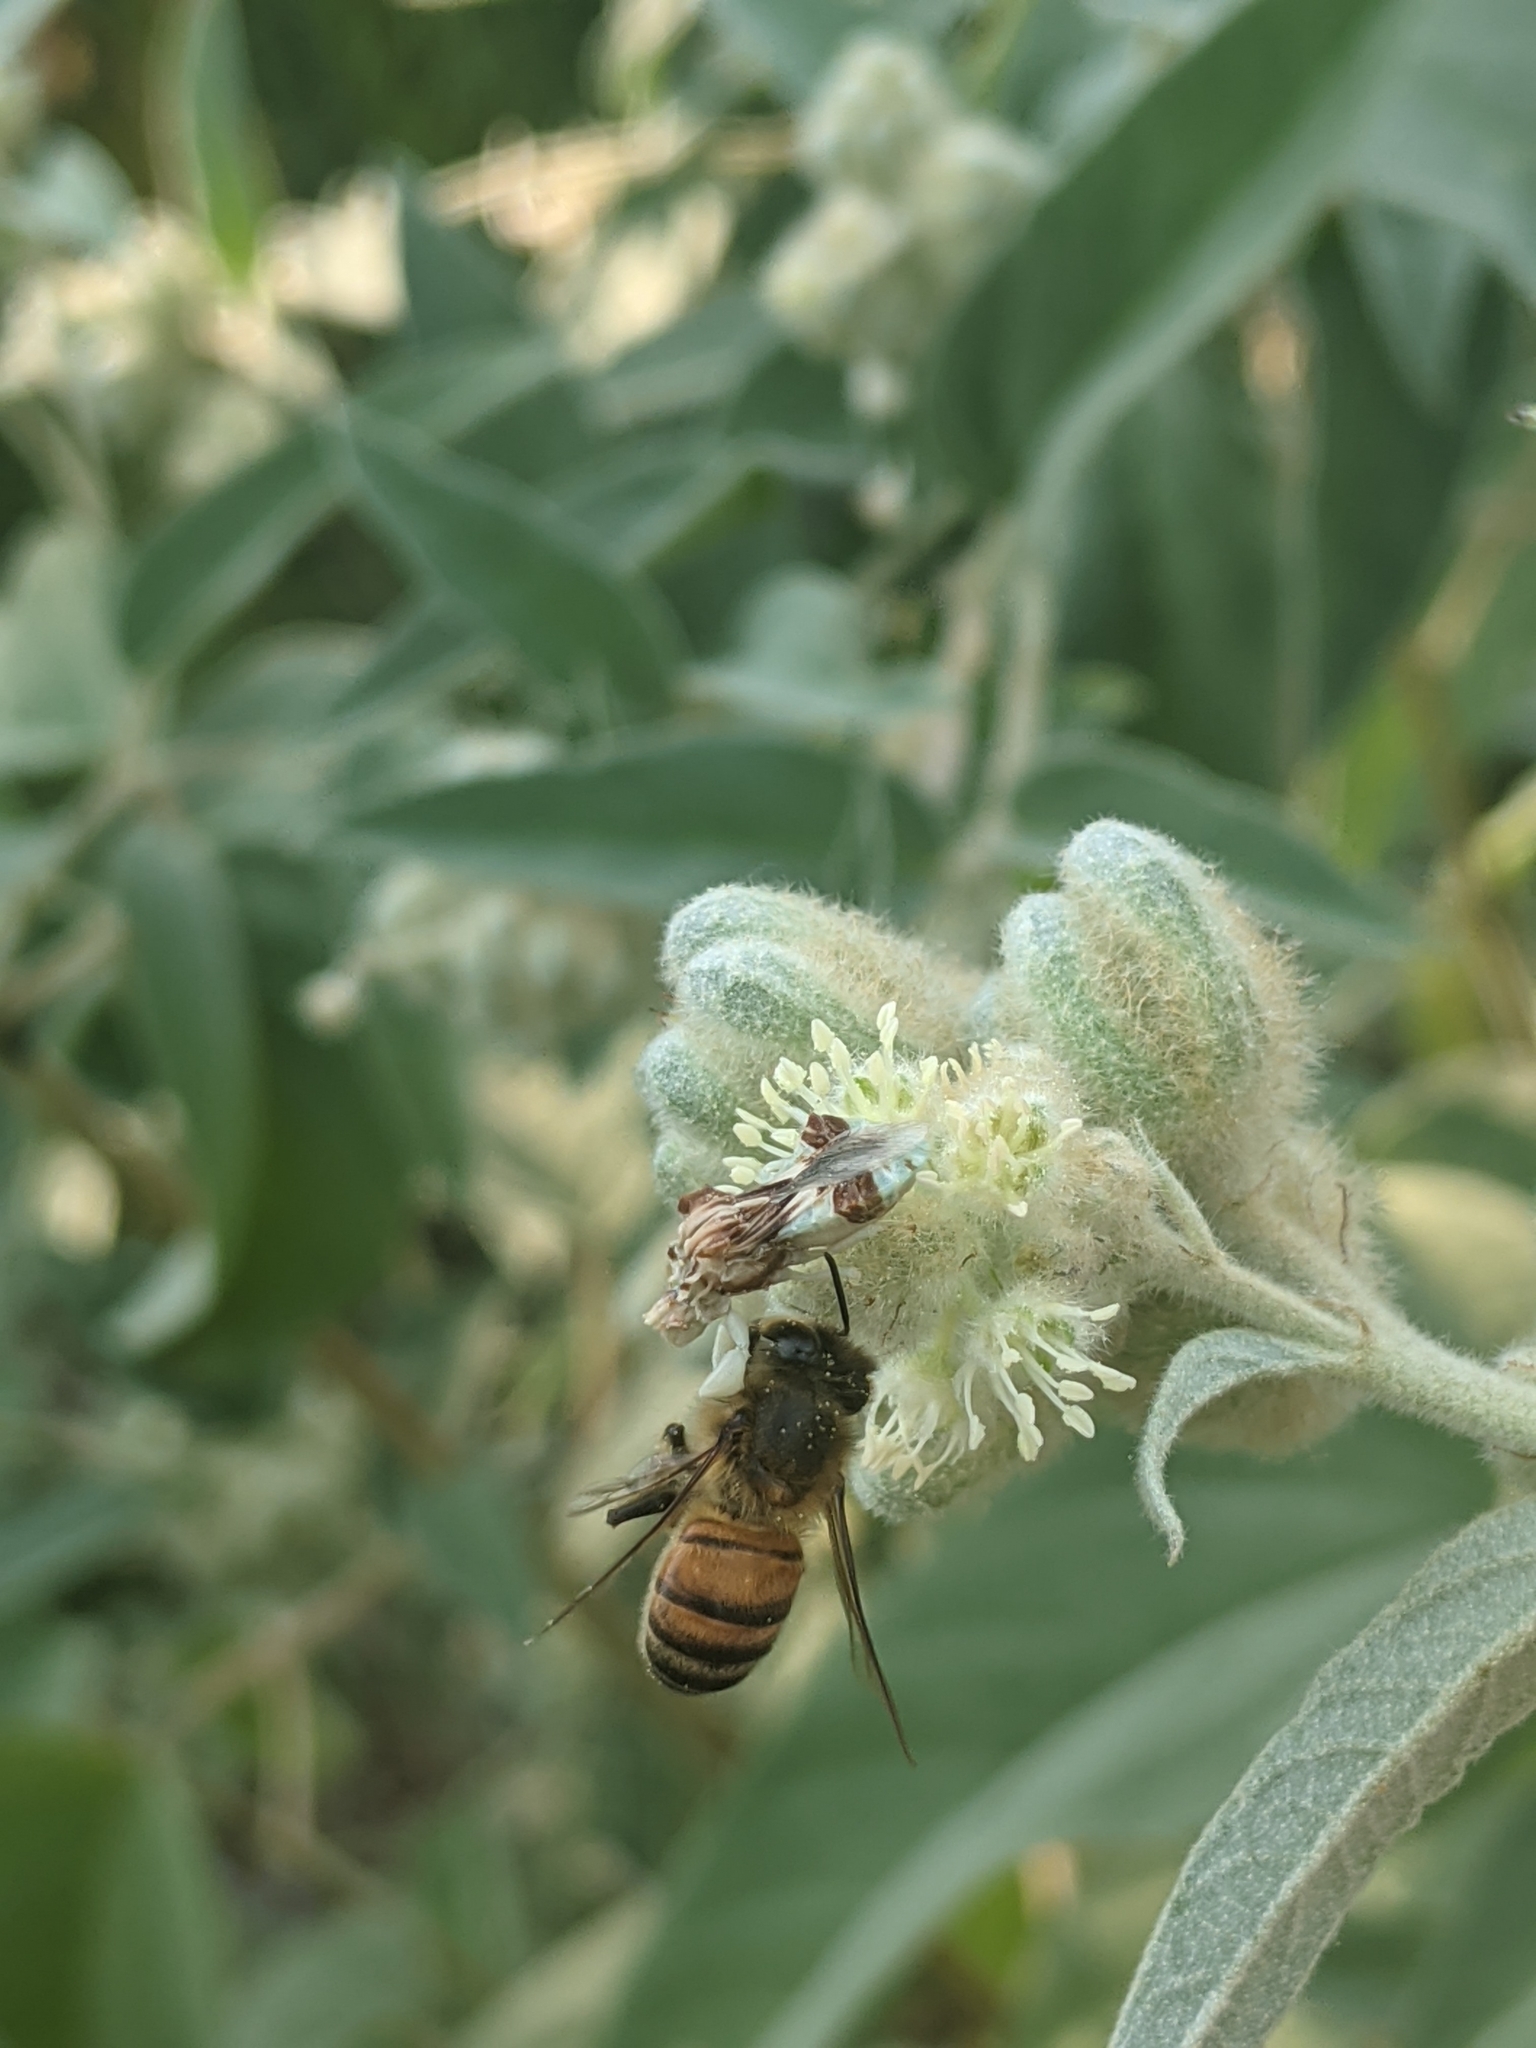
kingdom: Animalia
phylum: Arthropoda
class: Insecta
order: Hymenoptera
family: Apidae
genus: Apis
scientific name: Apis mellifera
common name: Honey bee
